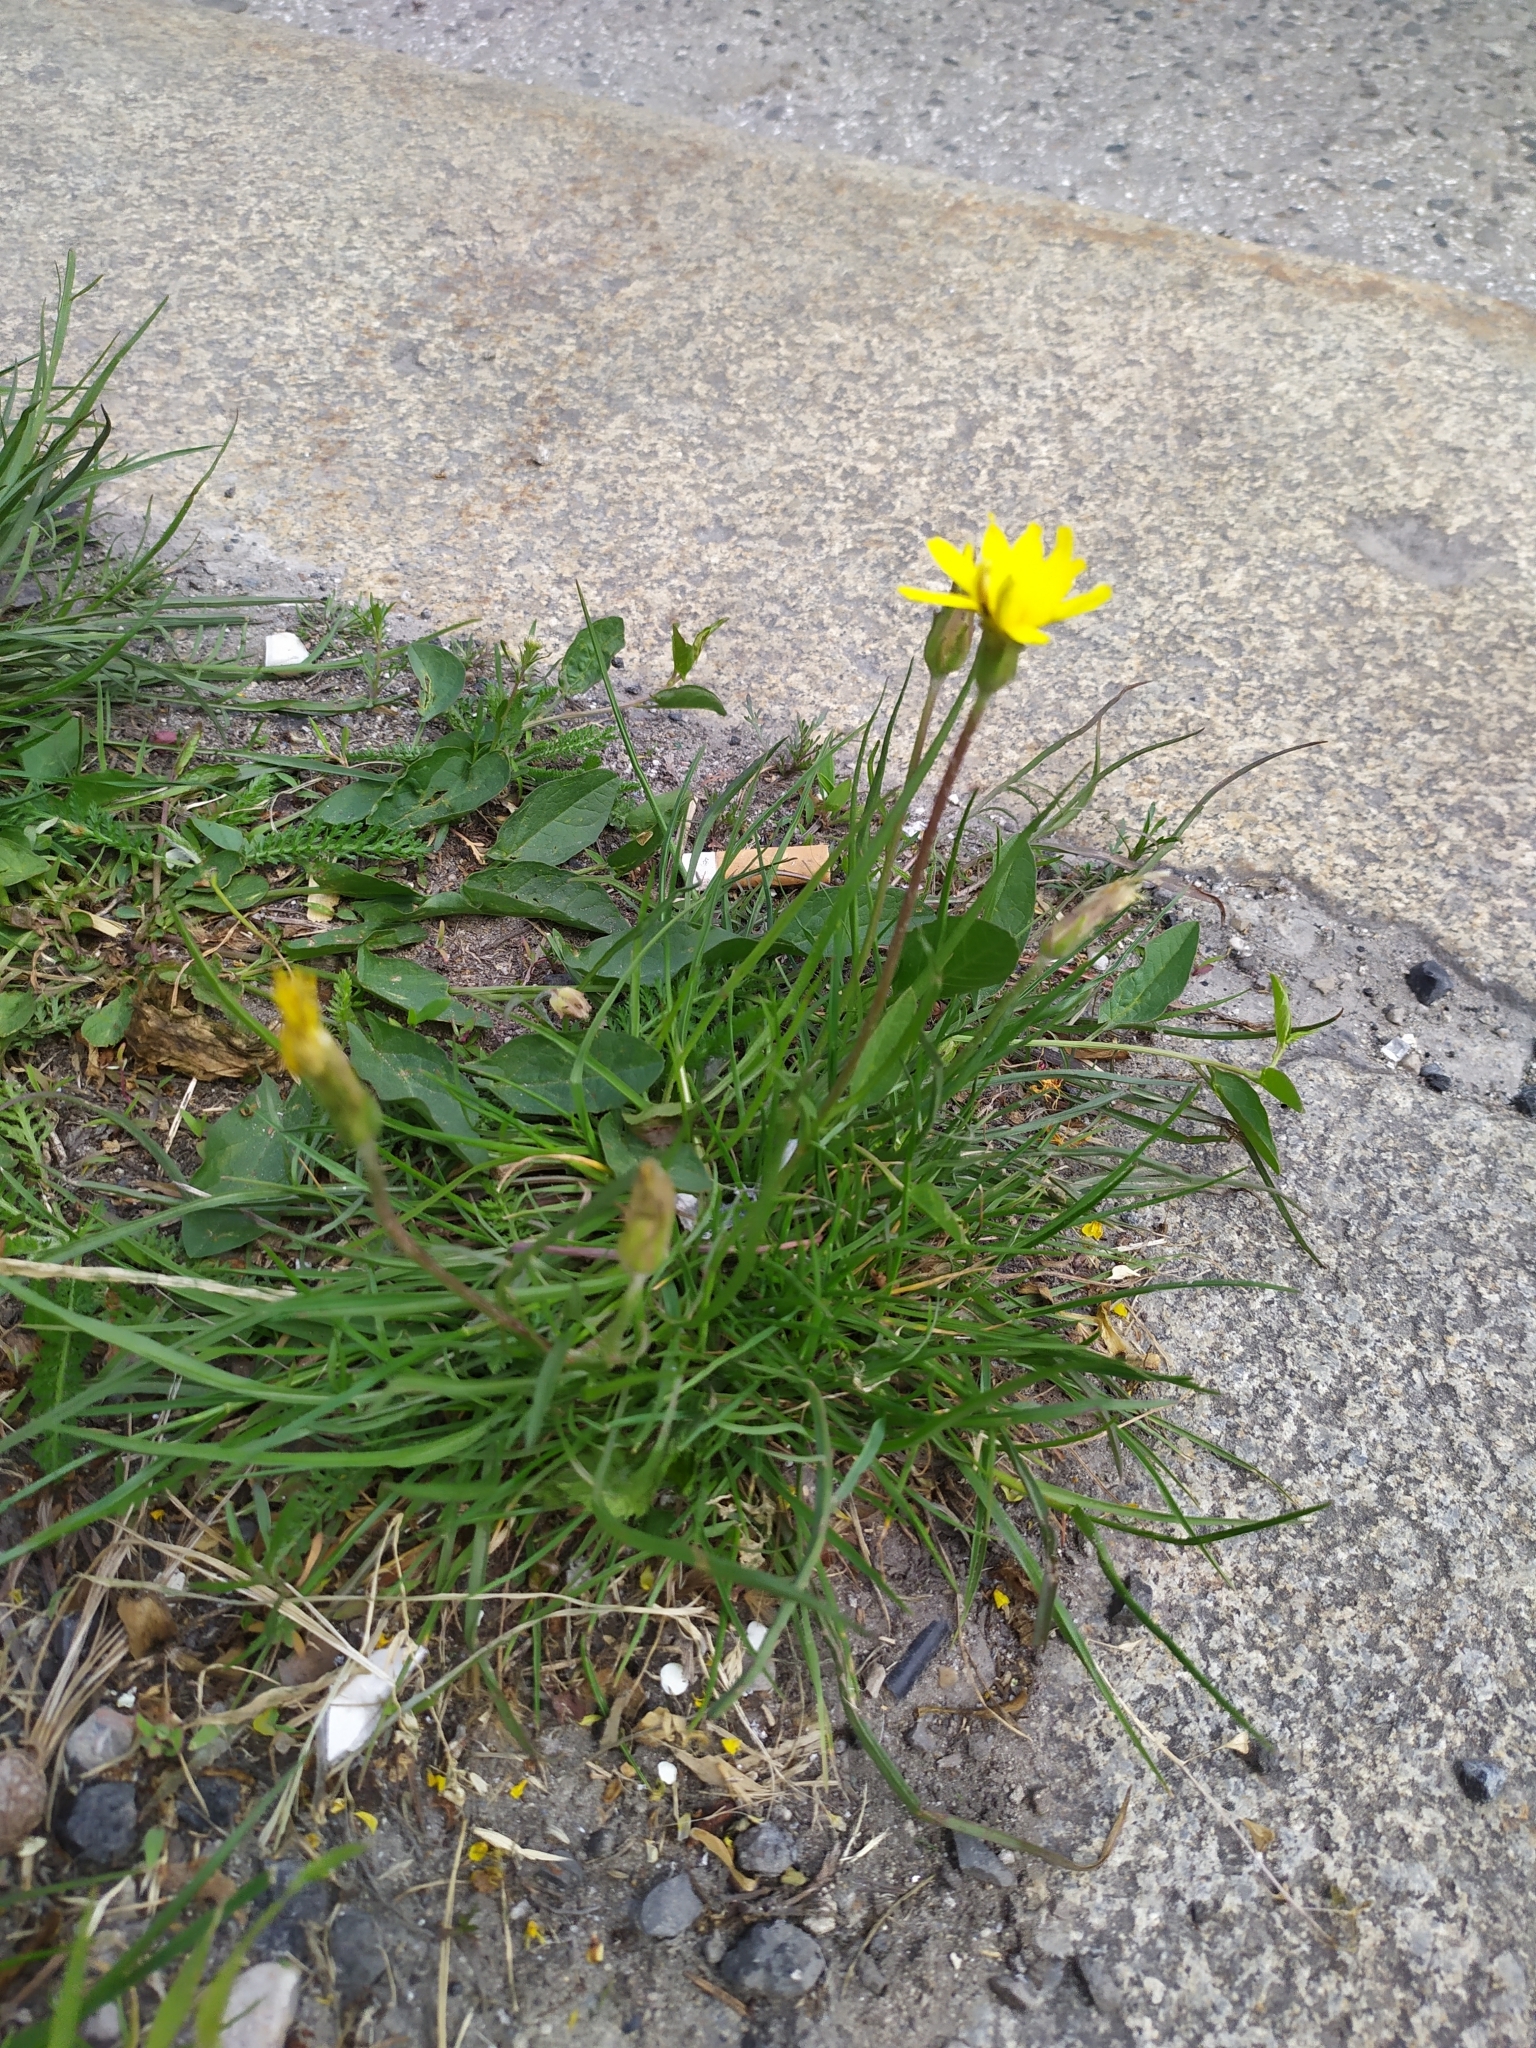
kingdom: Plantae
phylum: Tracheophyta
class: Magnoliopsida
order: Asterales
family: Asteraceae
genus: Scorzonera
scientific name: Scorzonera cana
